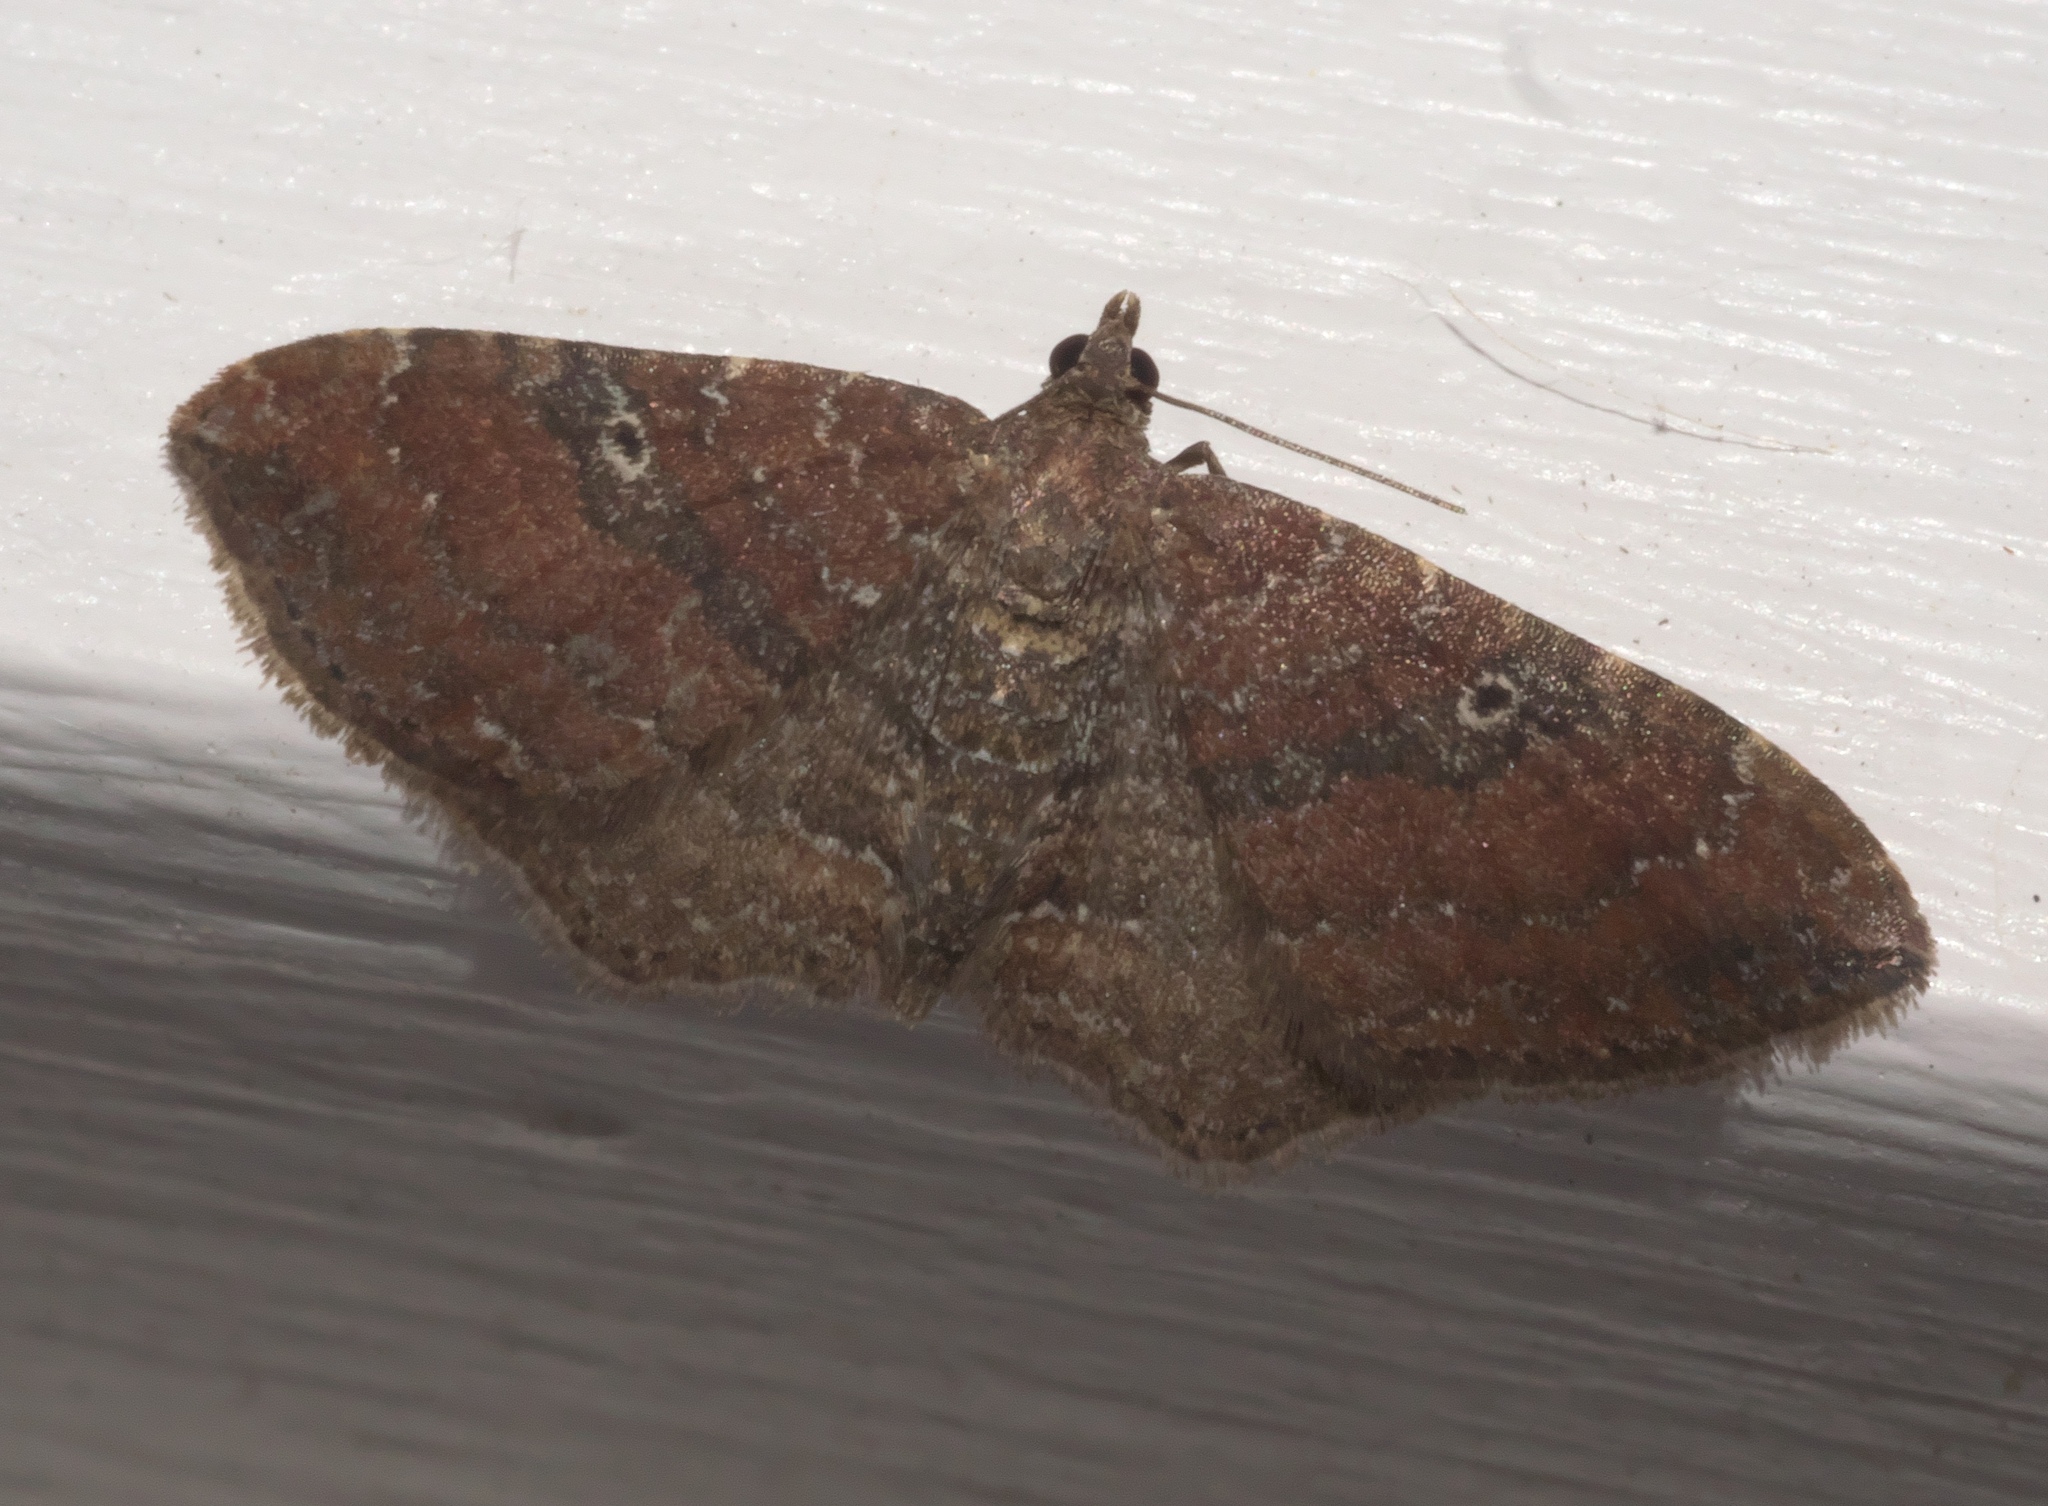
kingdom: Animalia
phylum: Arthropoda
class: Insecta
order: Lepidoptera
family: Geometridae
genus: Orthonama
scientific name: Orthonama obstipata
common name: The gem
